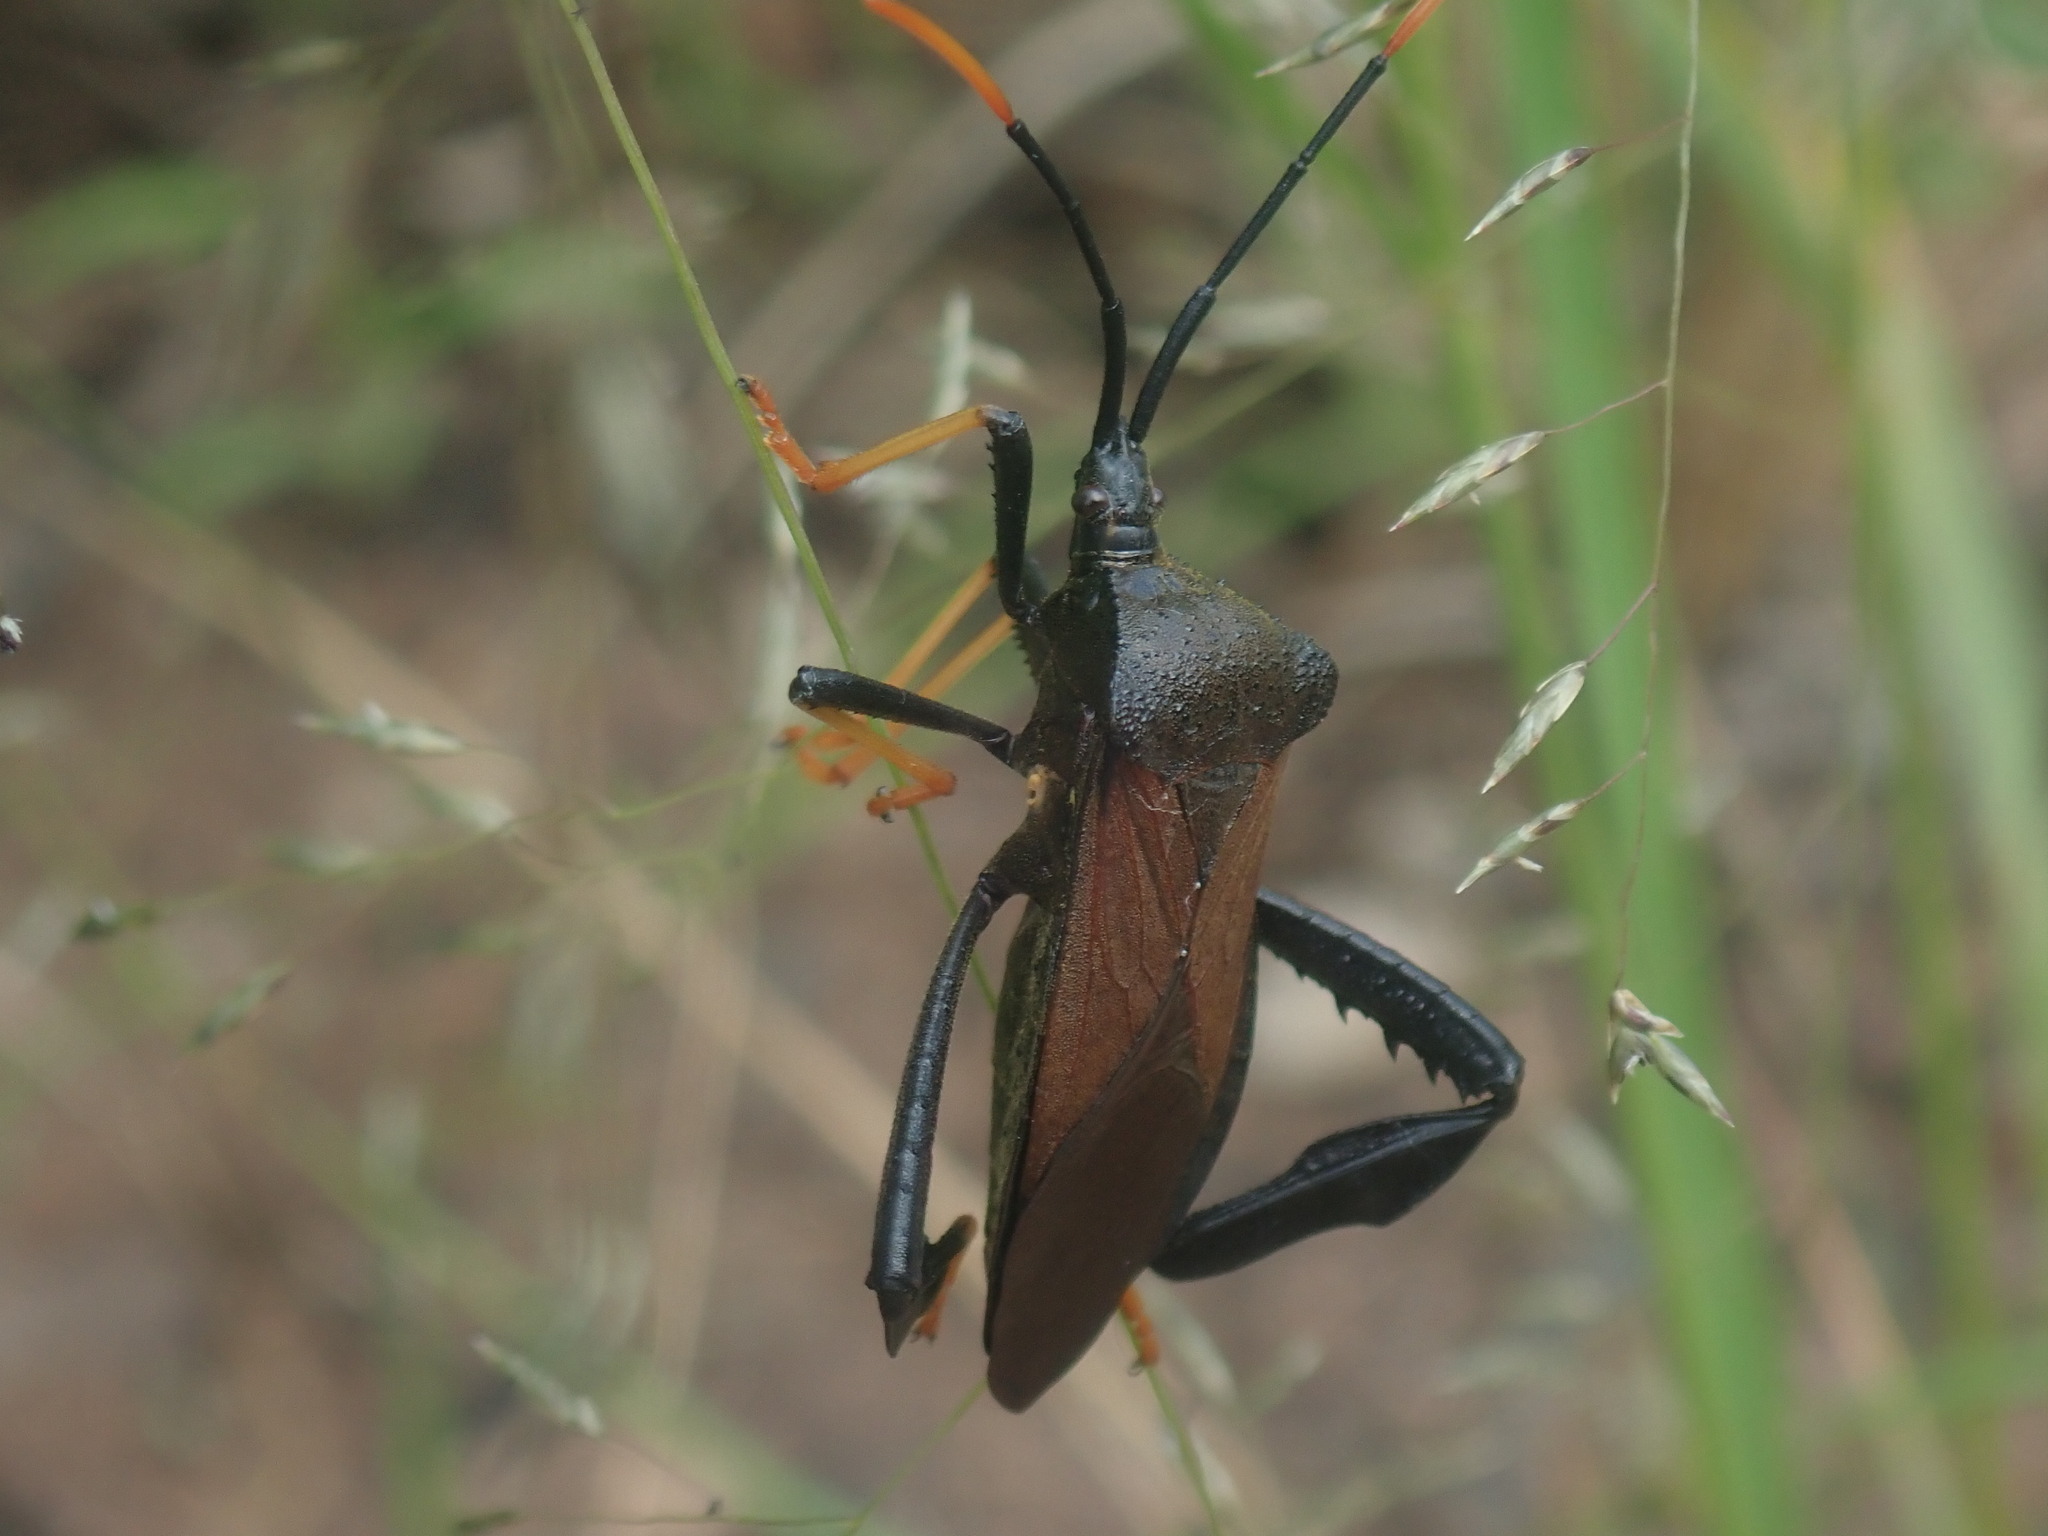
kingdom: Animalia
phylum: Arthropoda
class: Insecta
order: Hemiptera
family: Coreidae
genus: Acanthocephala
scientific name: Acanthocephala thomasi
